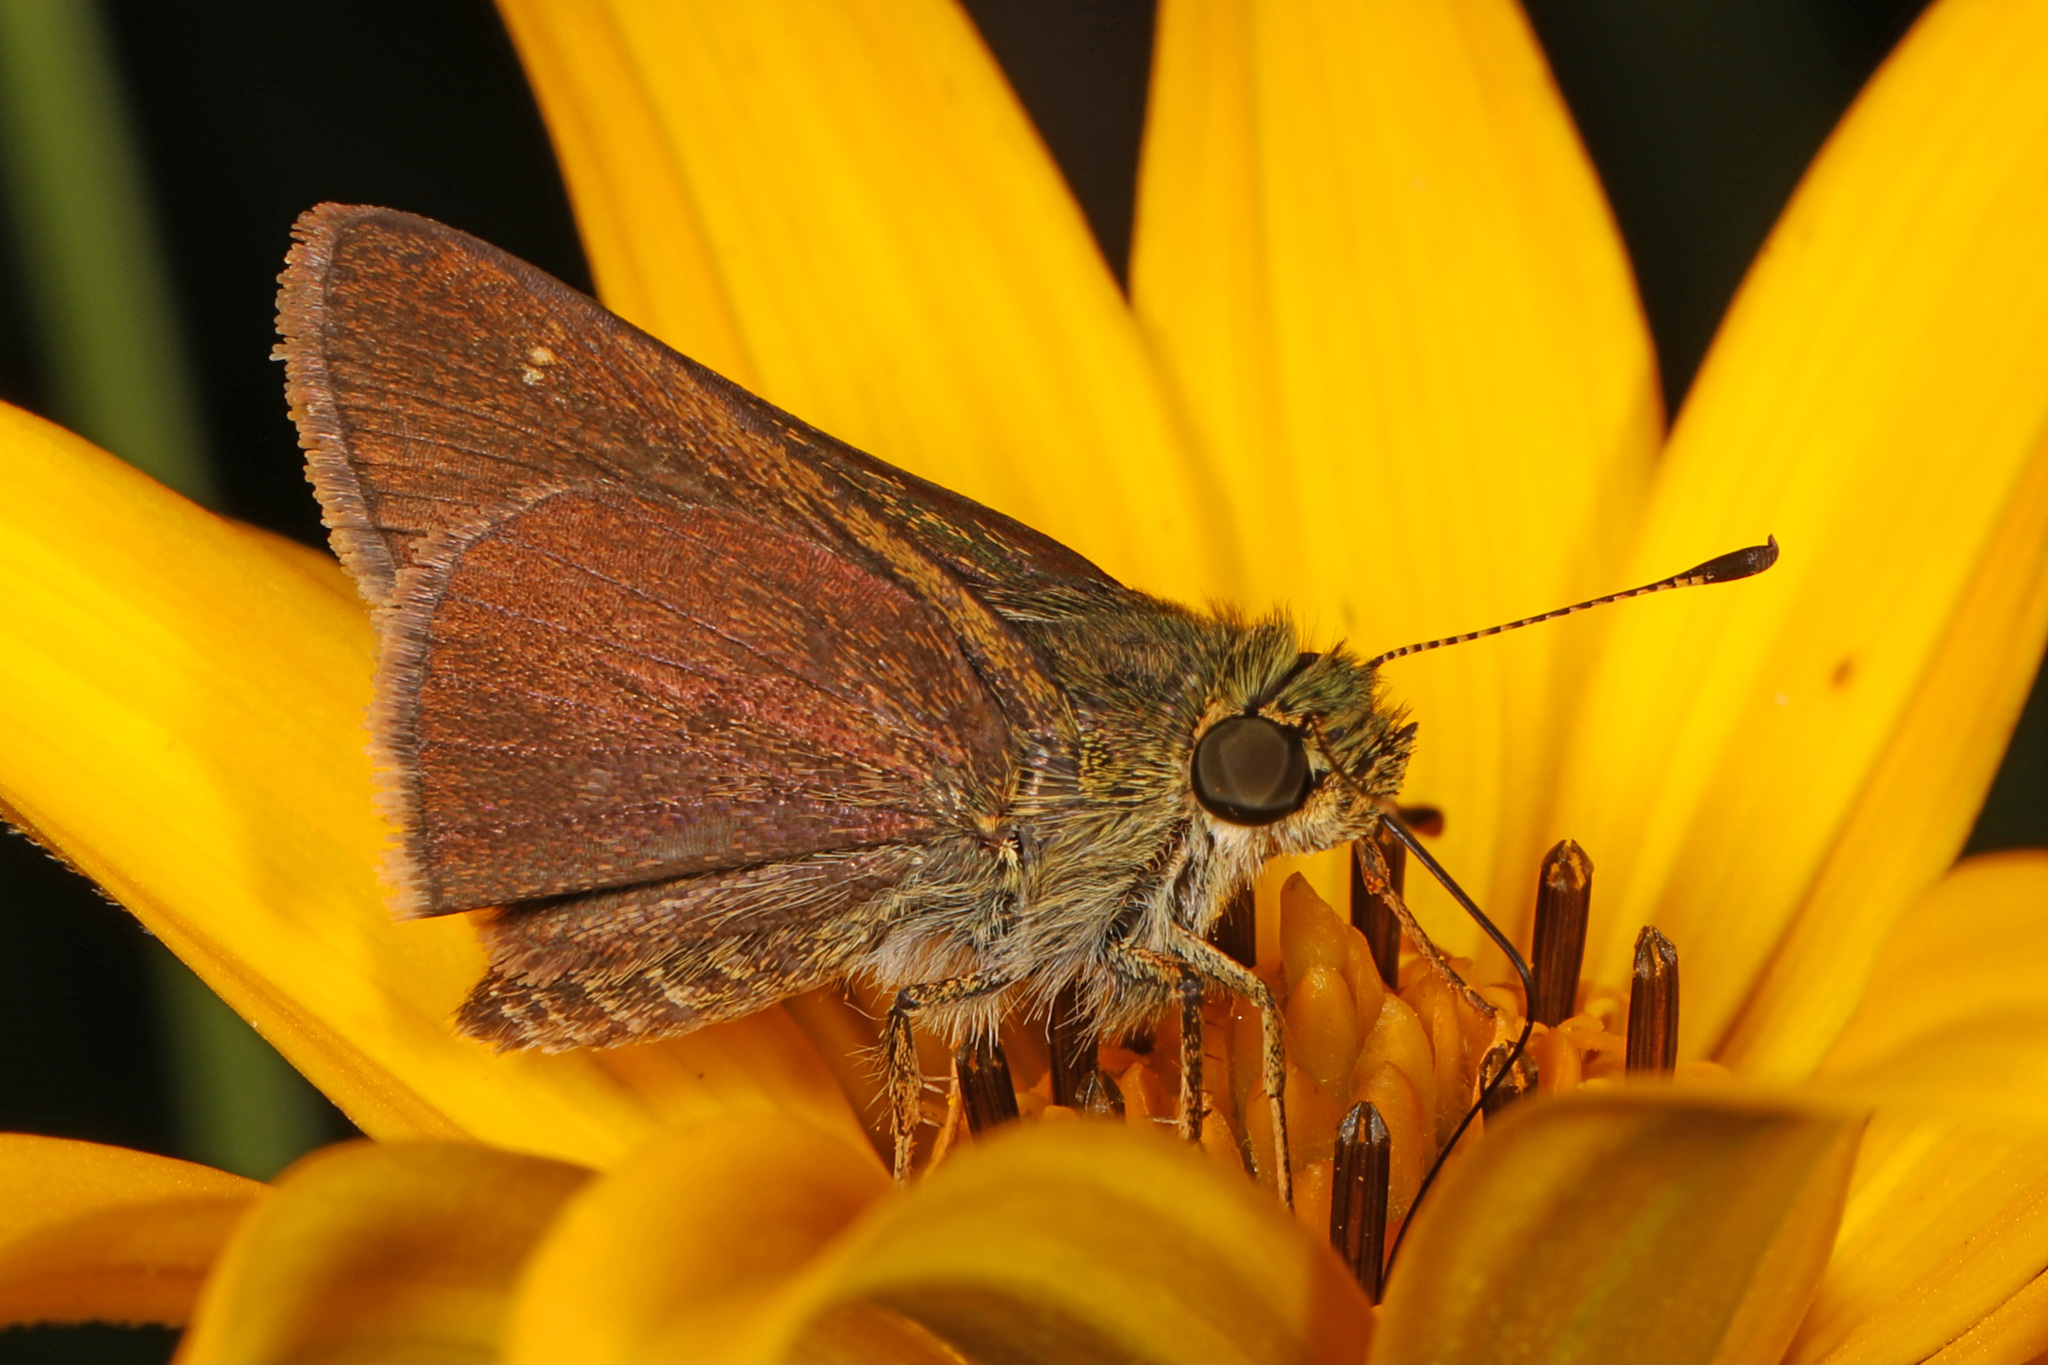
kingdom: Animalia
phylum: Arthropoda
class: Insecta
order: Lepidoptera
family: Hesperiidae
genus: Euphyes
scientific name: Euphyes vestris
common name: Dun skipper
